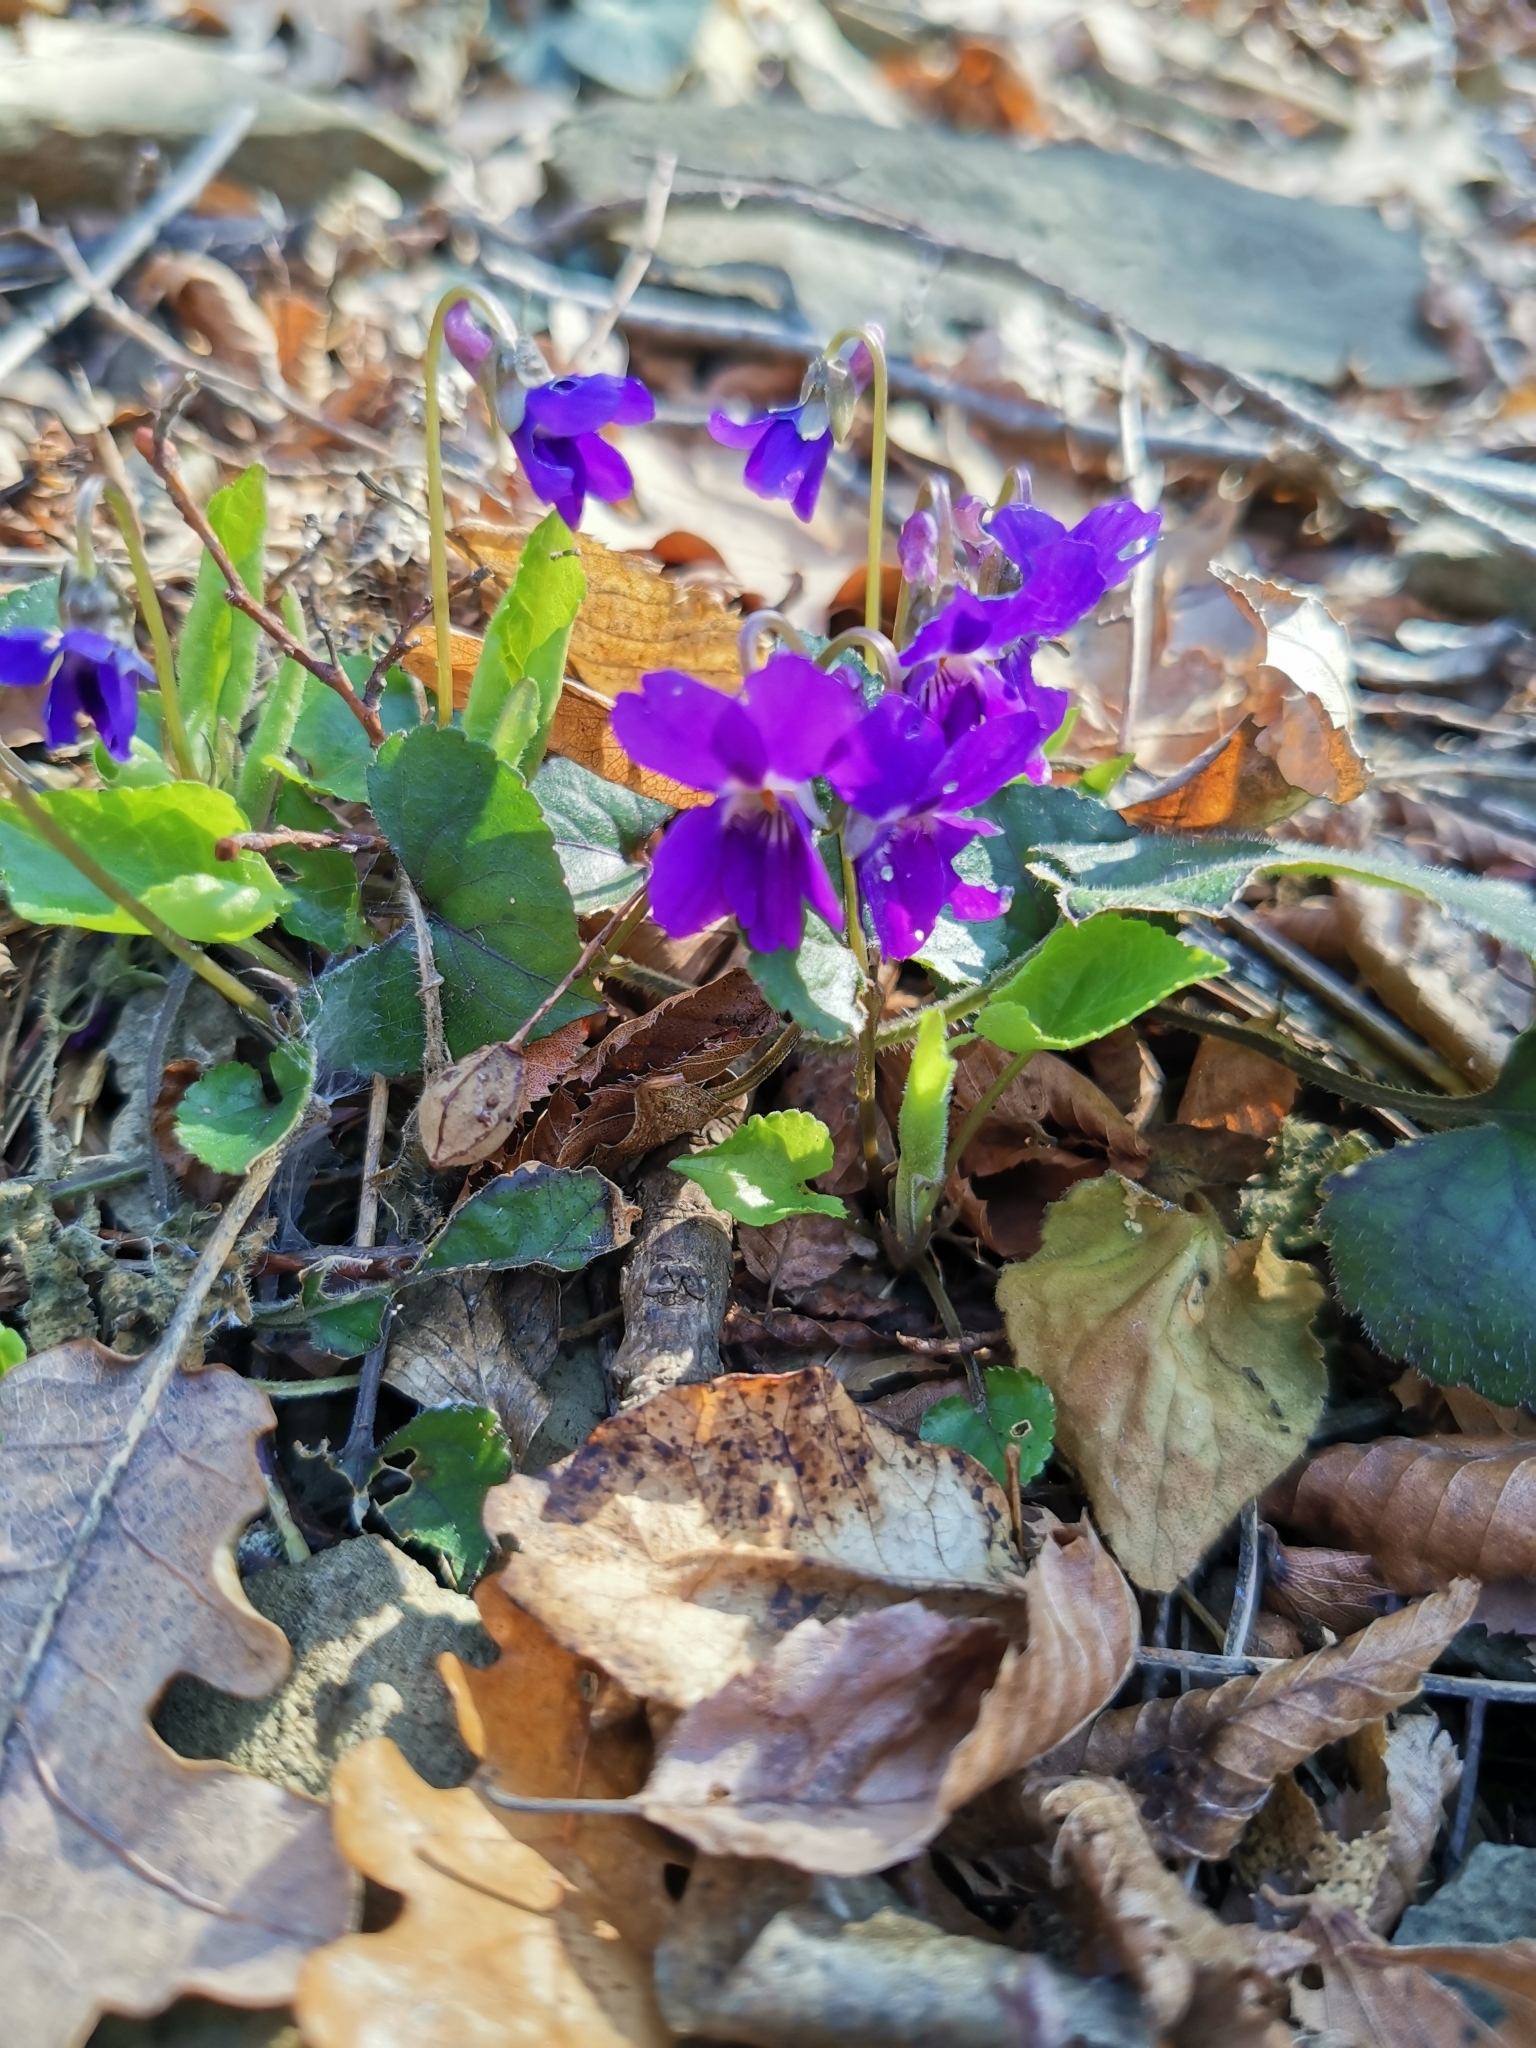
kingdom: Plantae
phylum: Tracheophyta
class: Magnoliopsida
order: Malpighiales
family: Violaceae
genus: Viola
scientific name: Viola alba
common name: White violet
